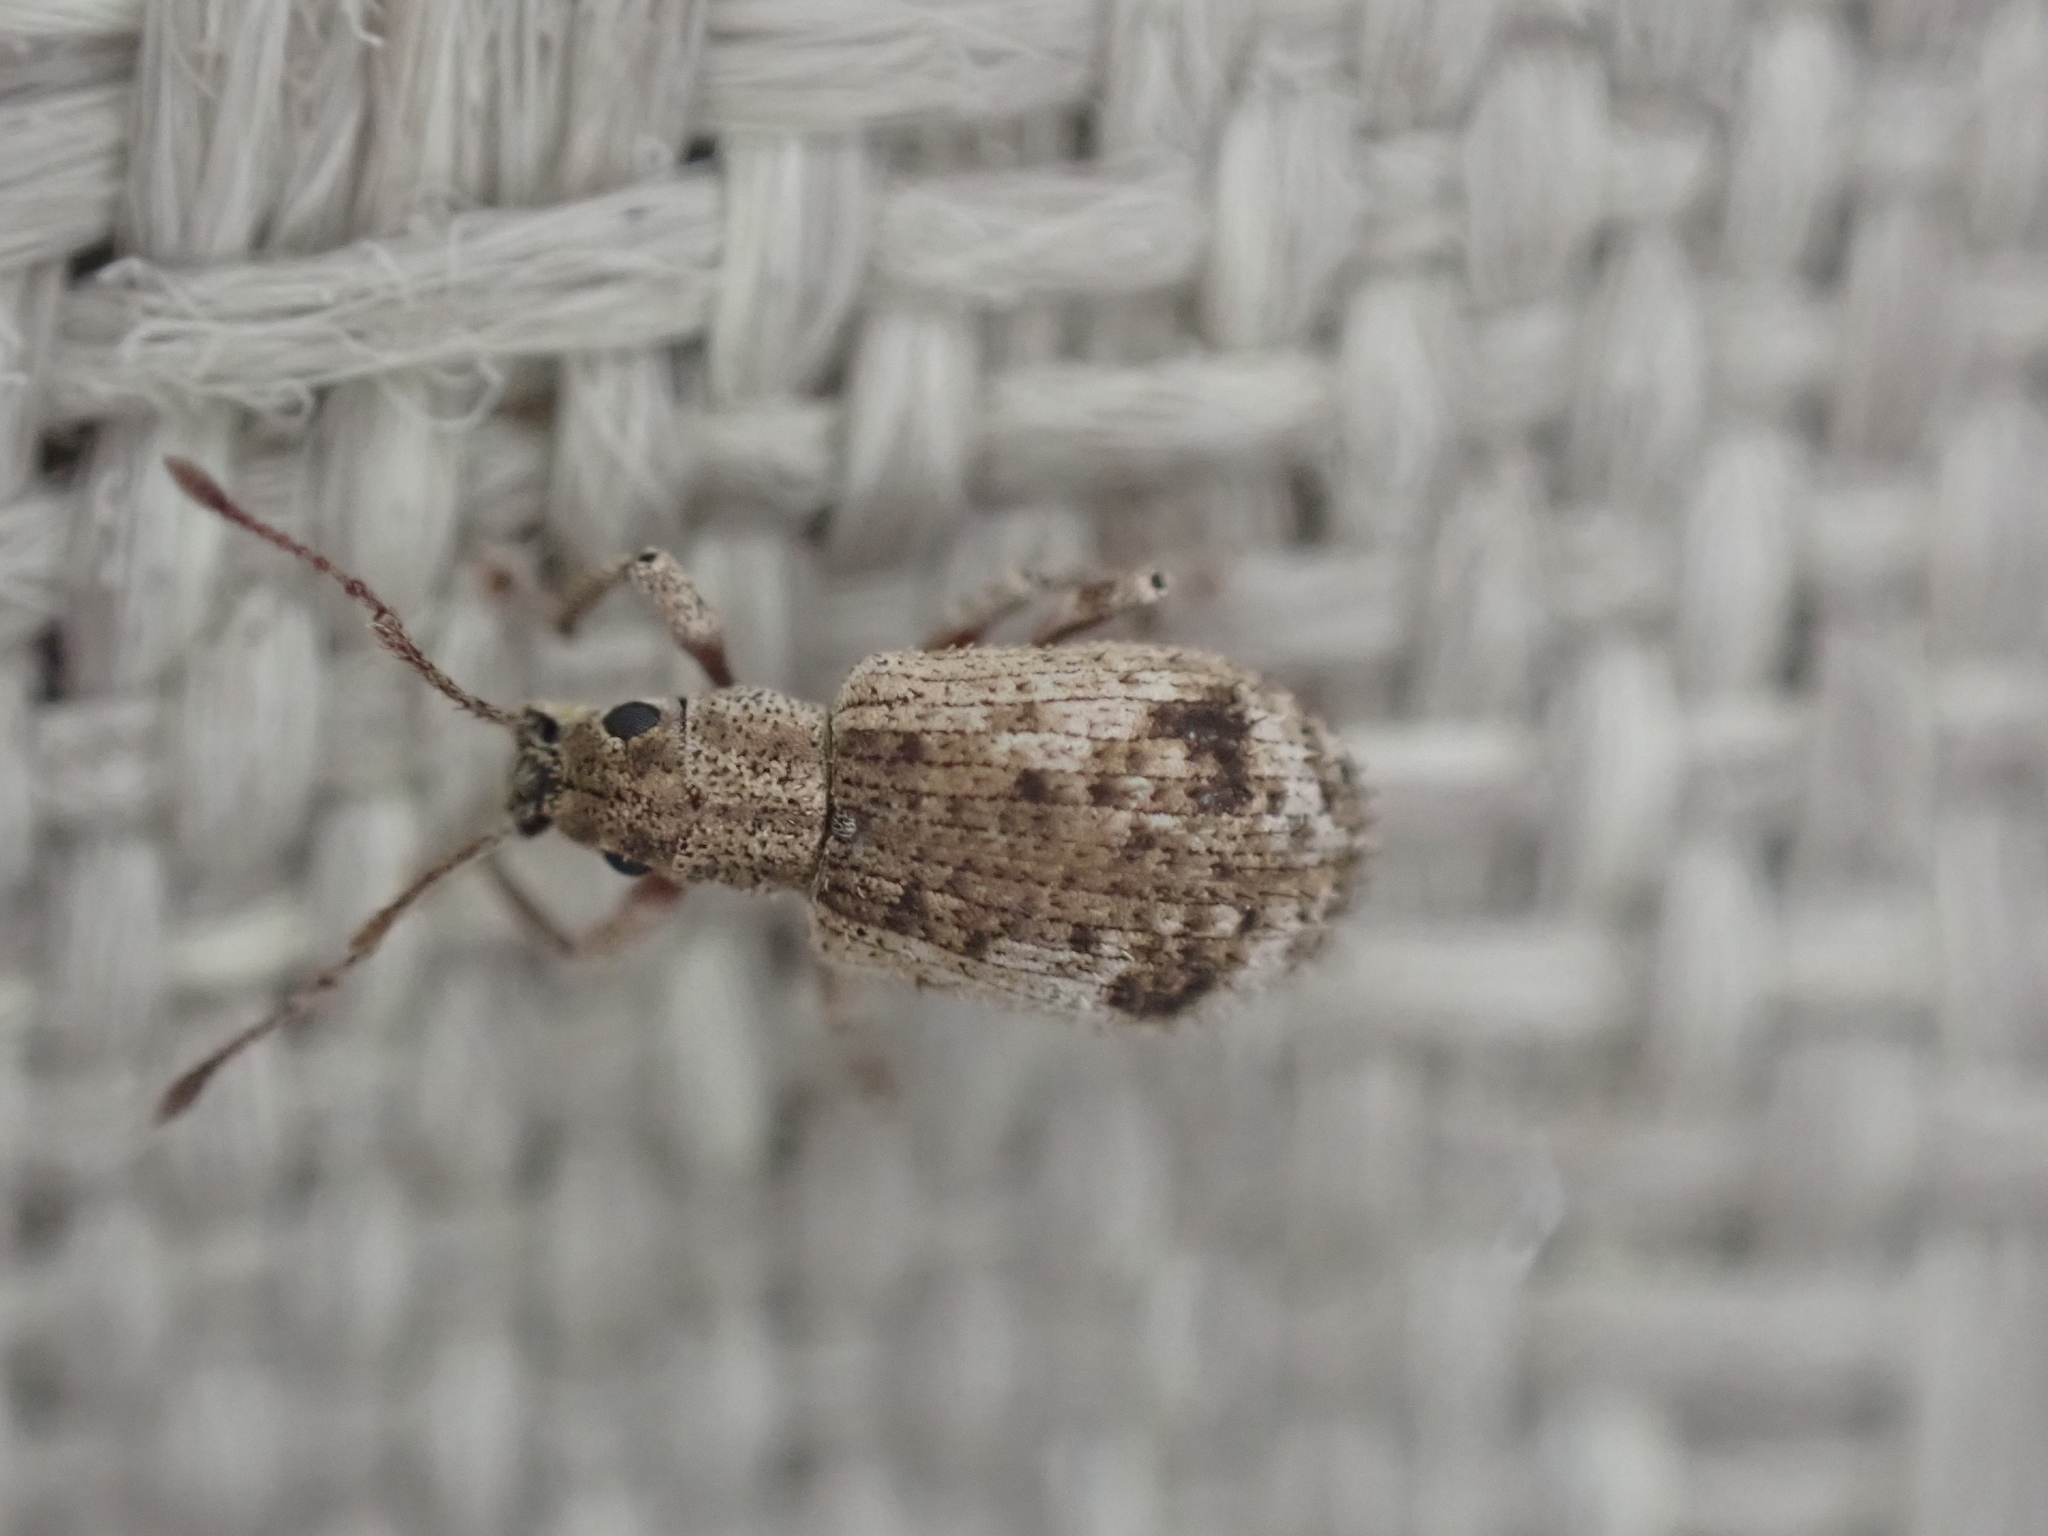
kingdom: Animalia
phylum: Arthropoda
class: Insecta
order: Coleoptera
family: Curculionidae
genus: Pseudoedophrys
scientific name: Pseudoedophrys hilleri
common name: Weevil
